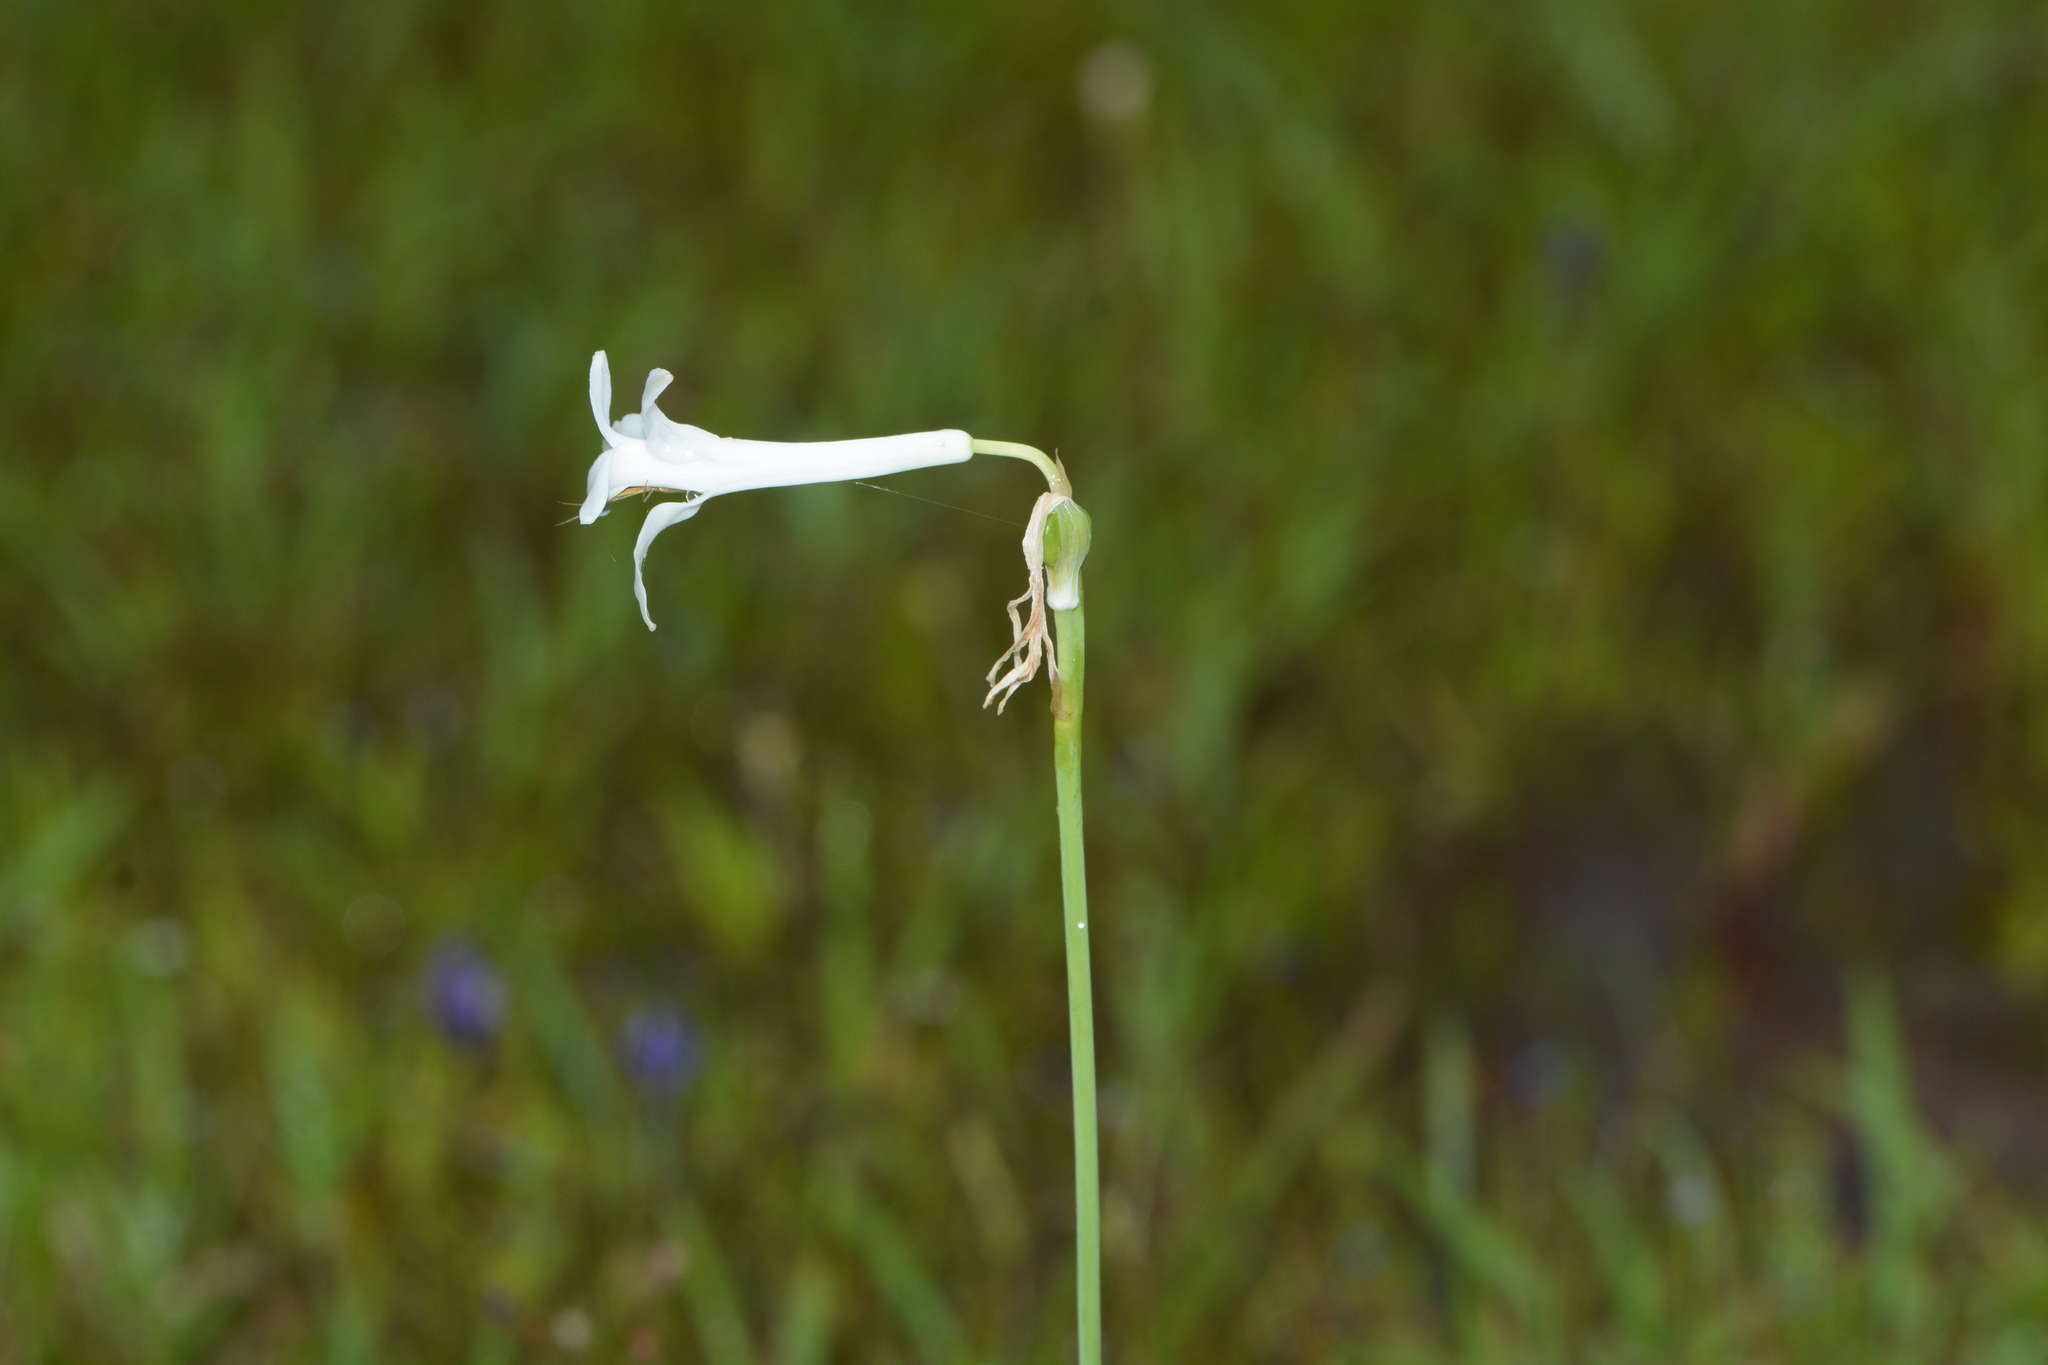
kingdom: Plantae
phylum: Tracheophyta
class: Liliopsida
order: Asparagales
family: Asparagaceae
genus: Dipcadi
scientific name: Dipcadi concanense
